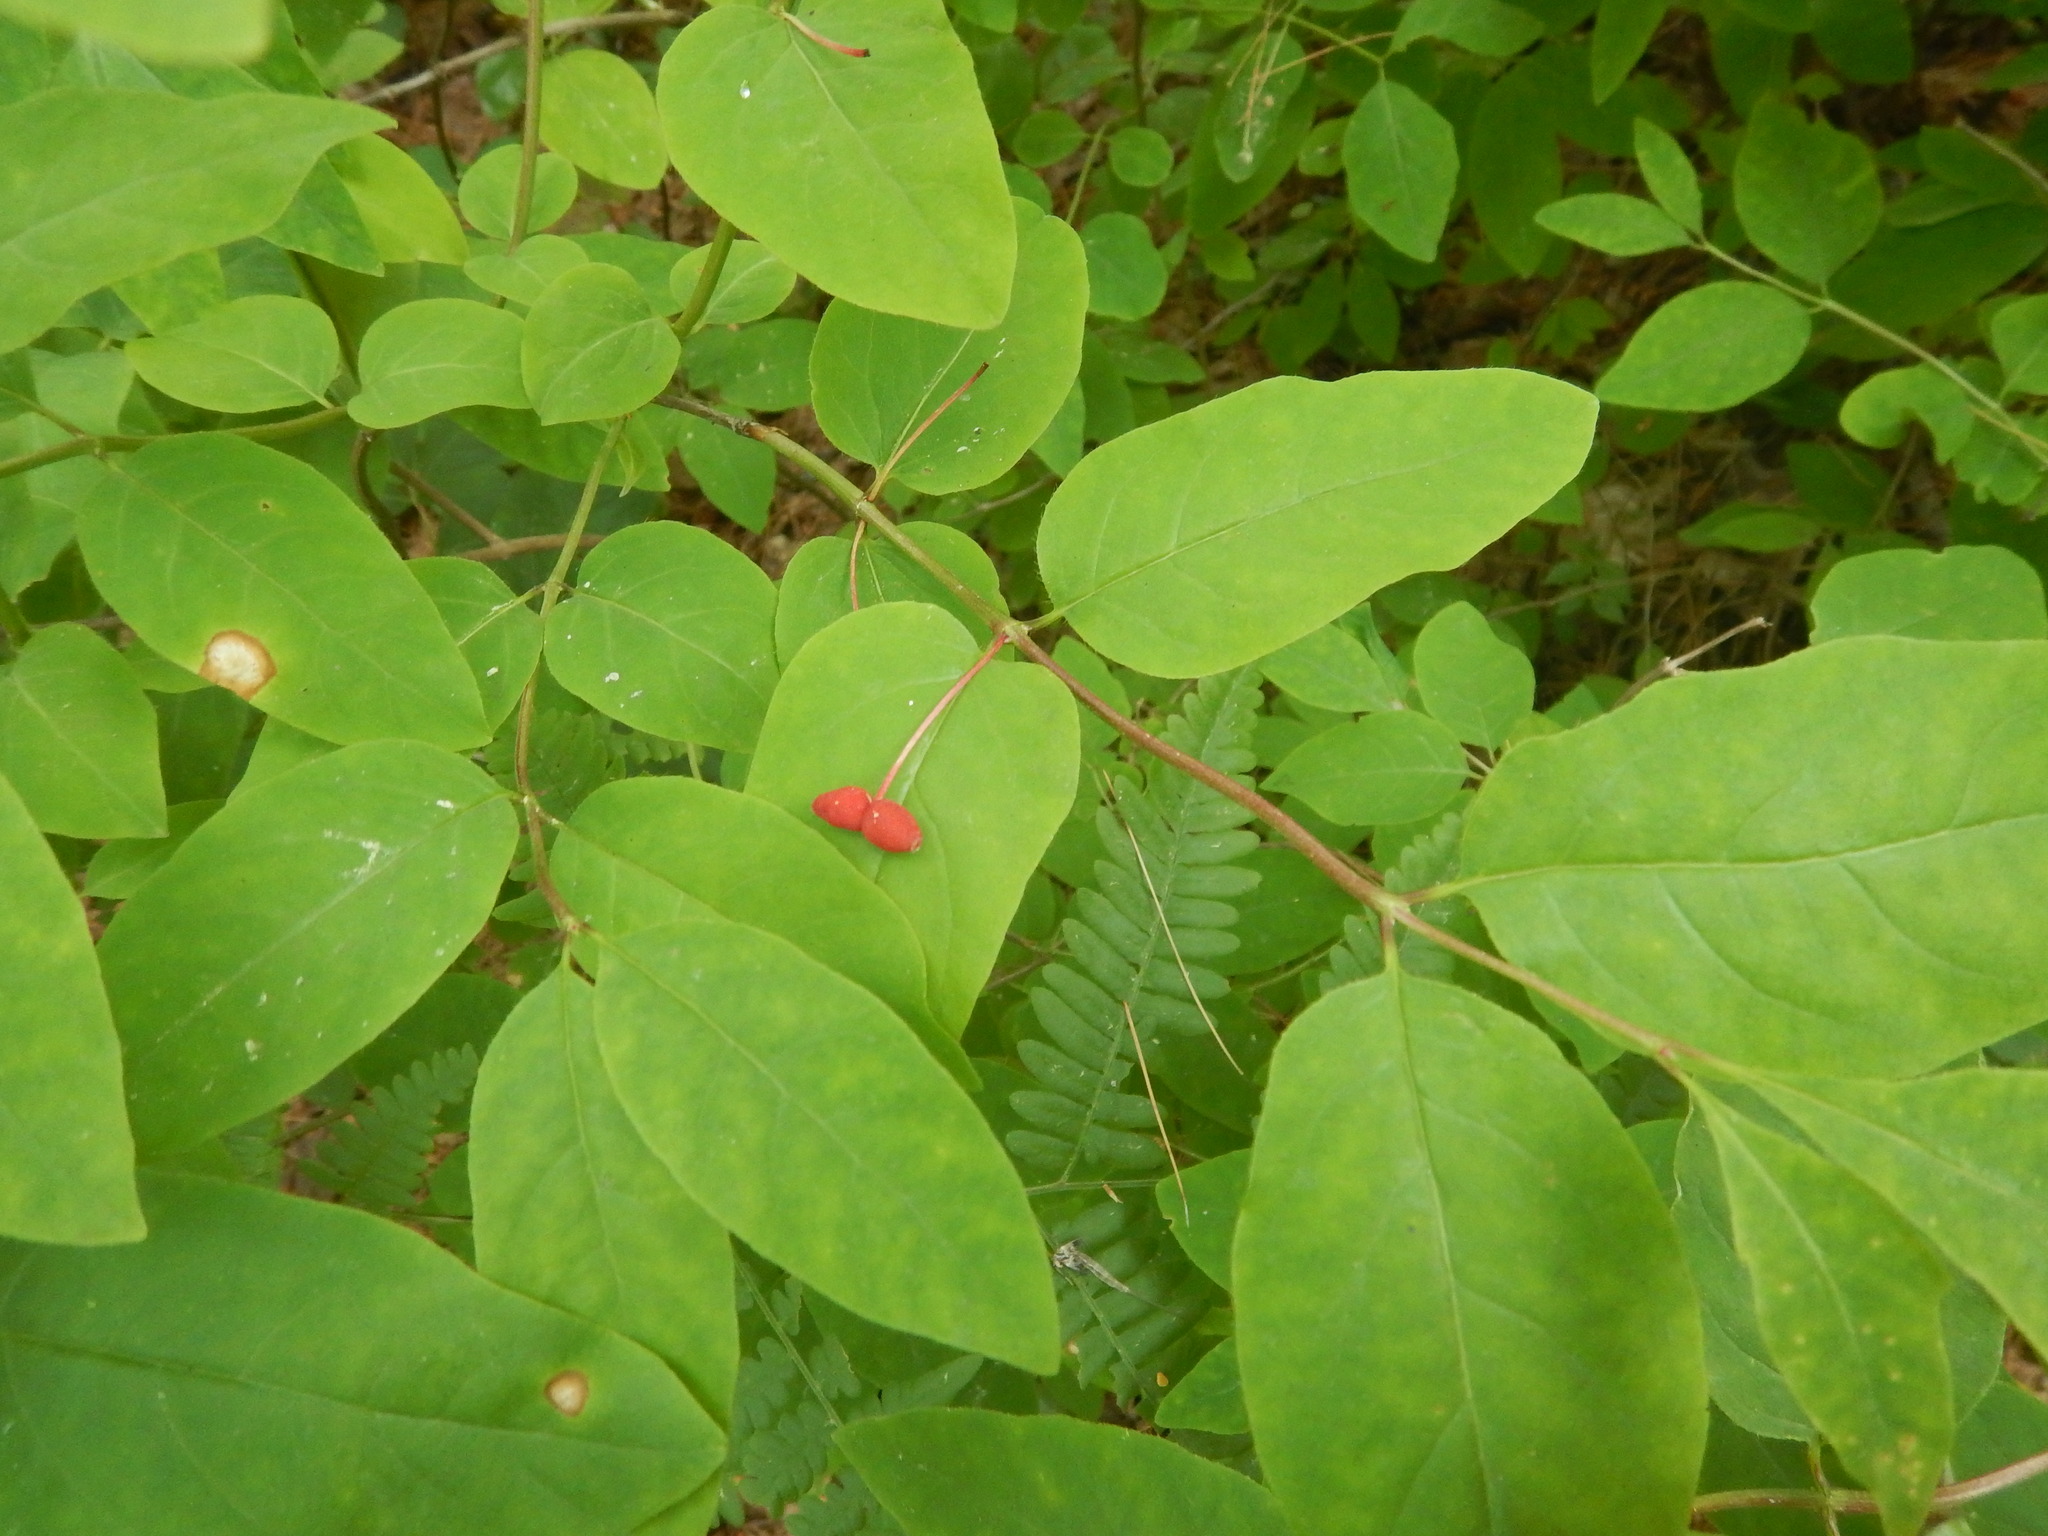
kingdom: Plantae
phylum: Tracheophyta
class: Magnoliopsida
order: Dipsacales
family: Caprifoliaceae
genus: Lonicera
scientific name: Lonicera canadensis
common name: American fly-honeysuckle
